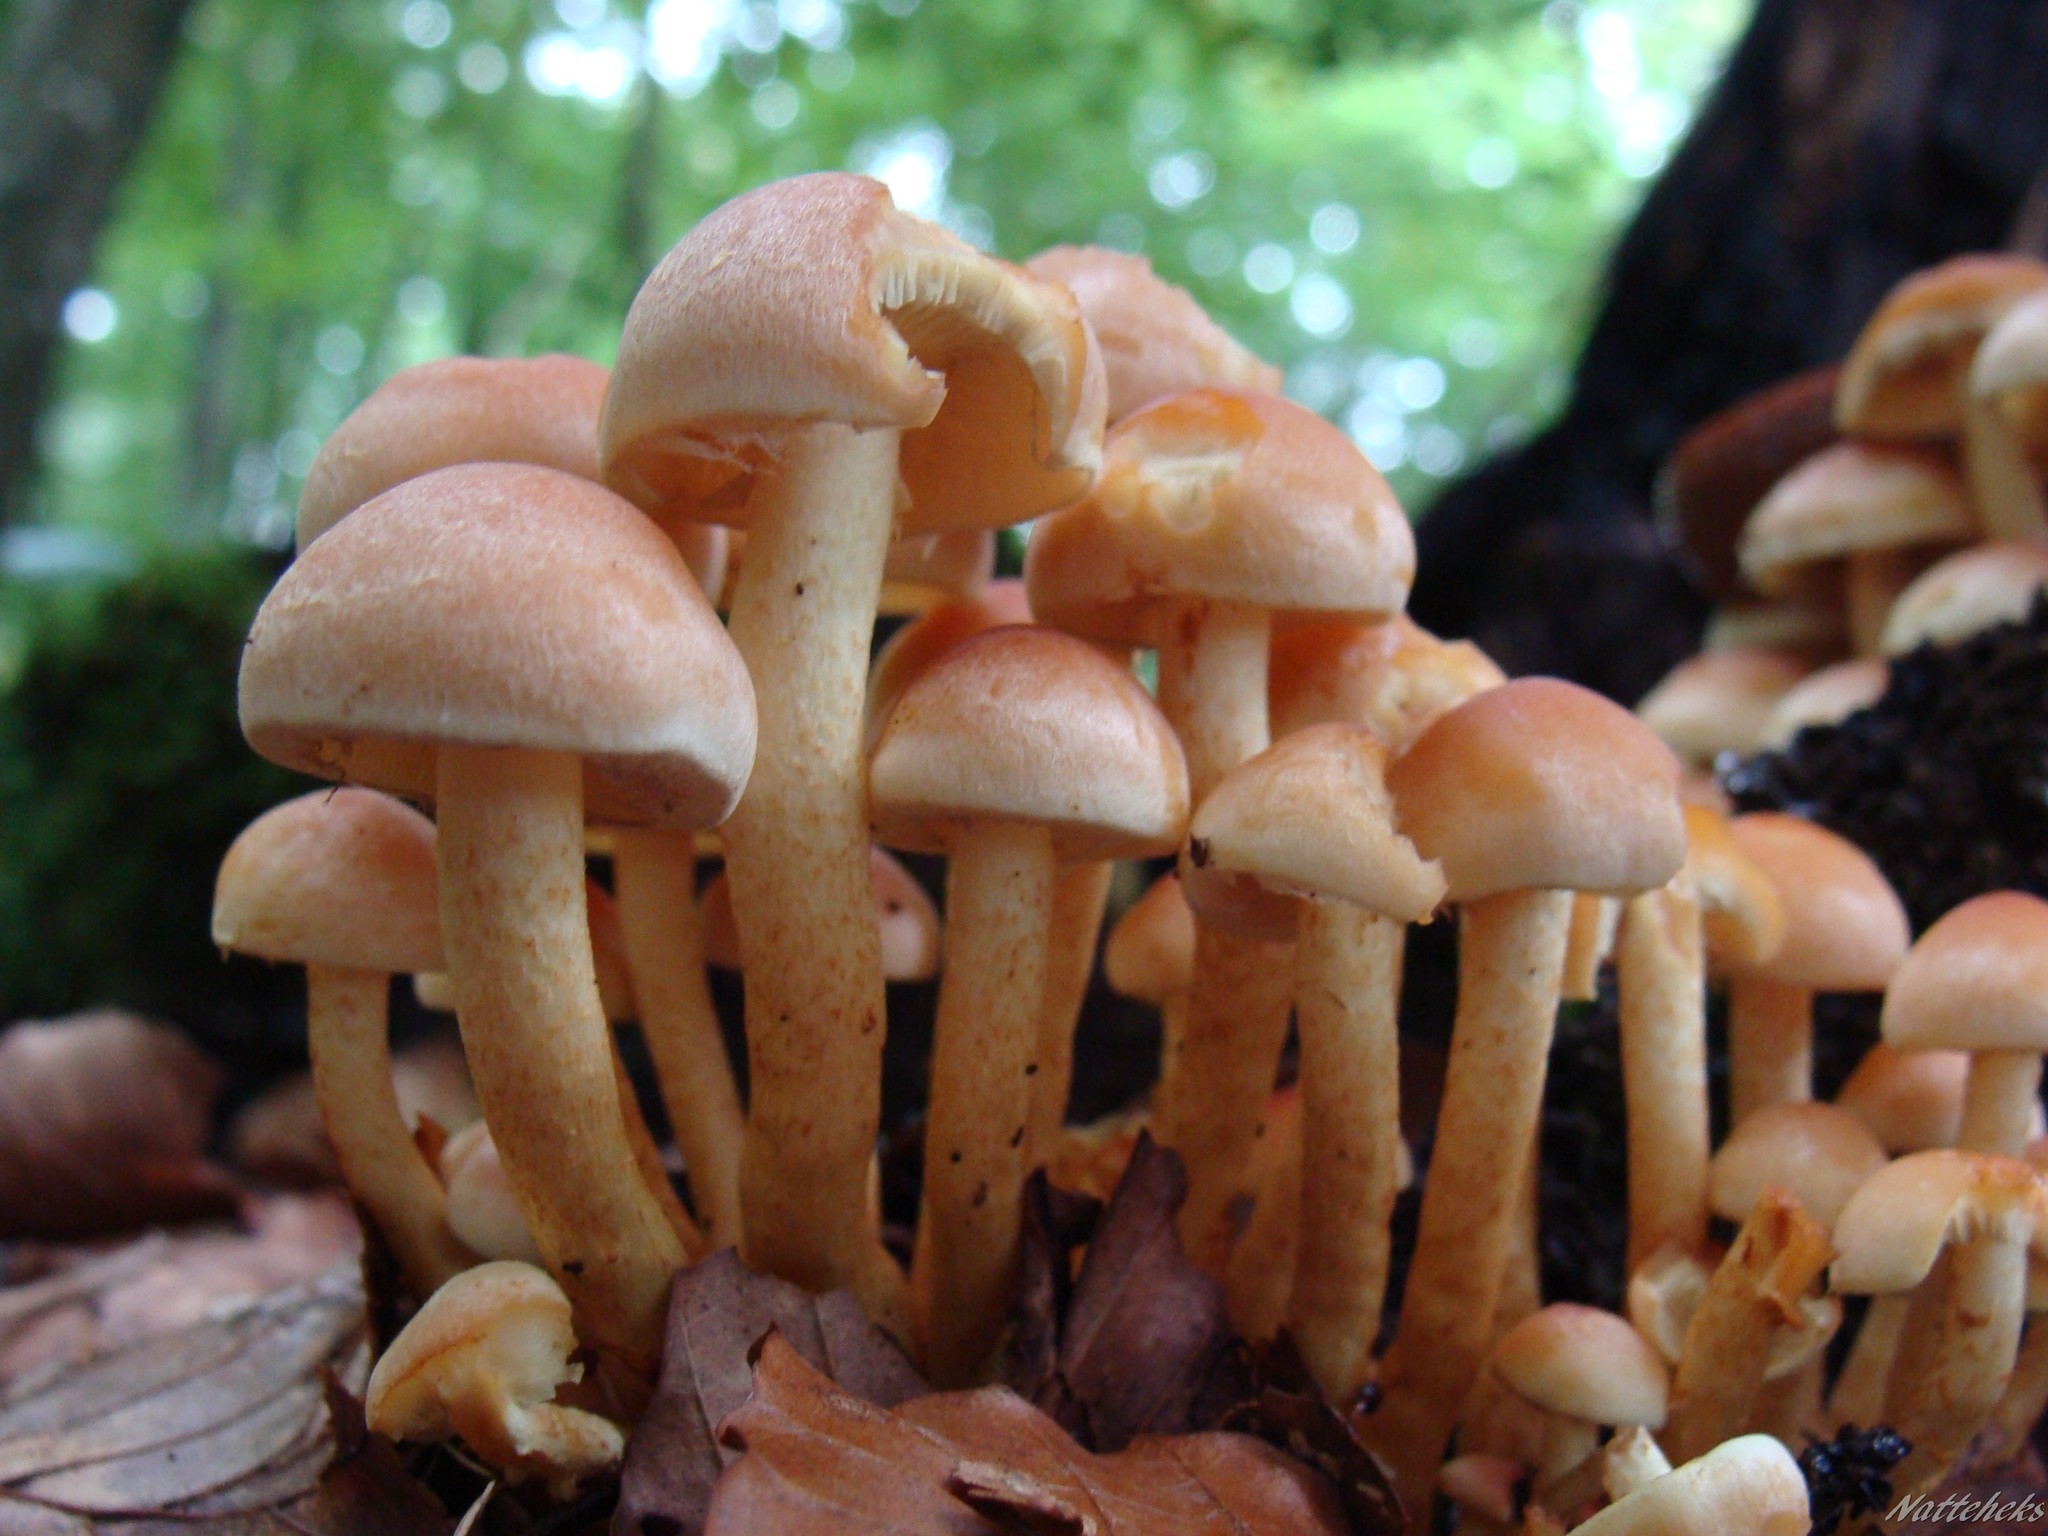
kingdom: Fungi
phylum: Basidiomycota
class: Agaricomycetes
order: Agaricales
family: Strophariaceae
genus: Hypholoma
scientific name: Hypholoma fasciculare
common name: Sulphur tuft
